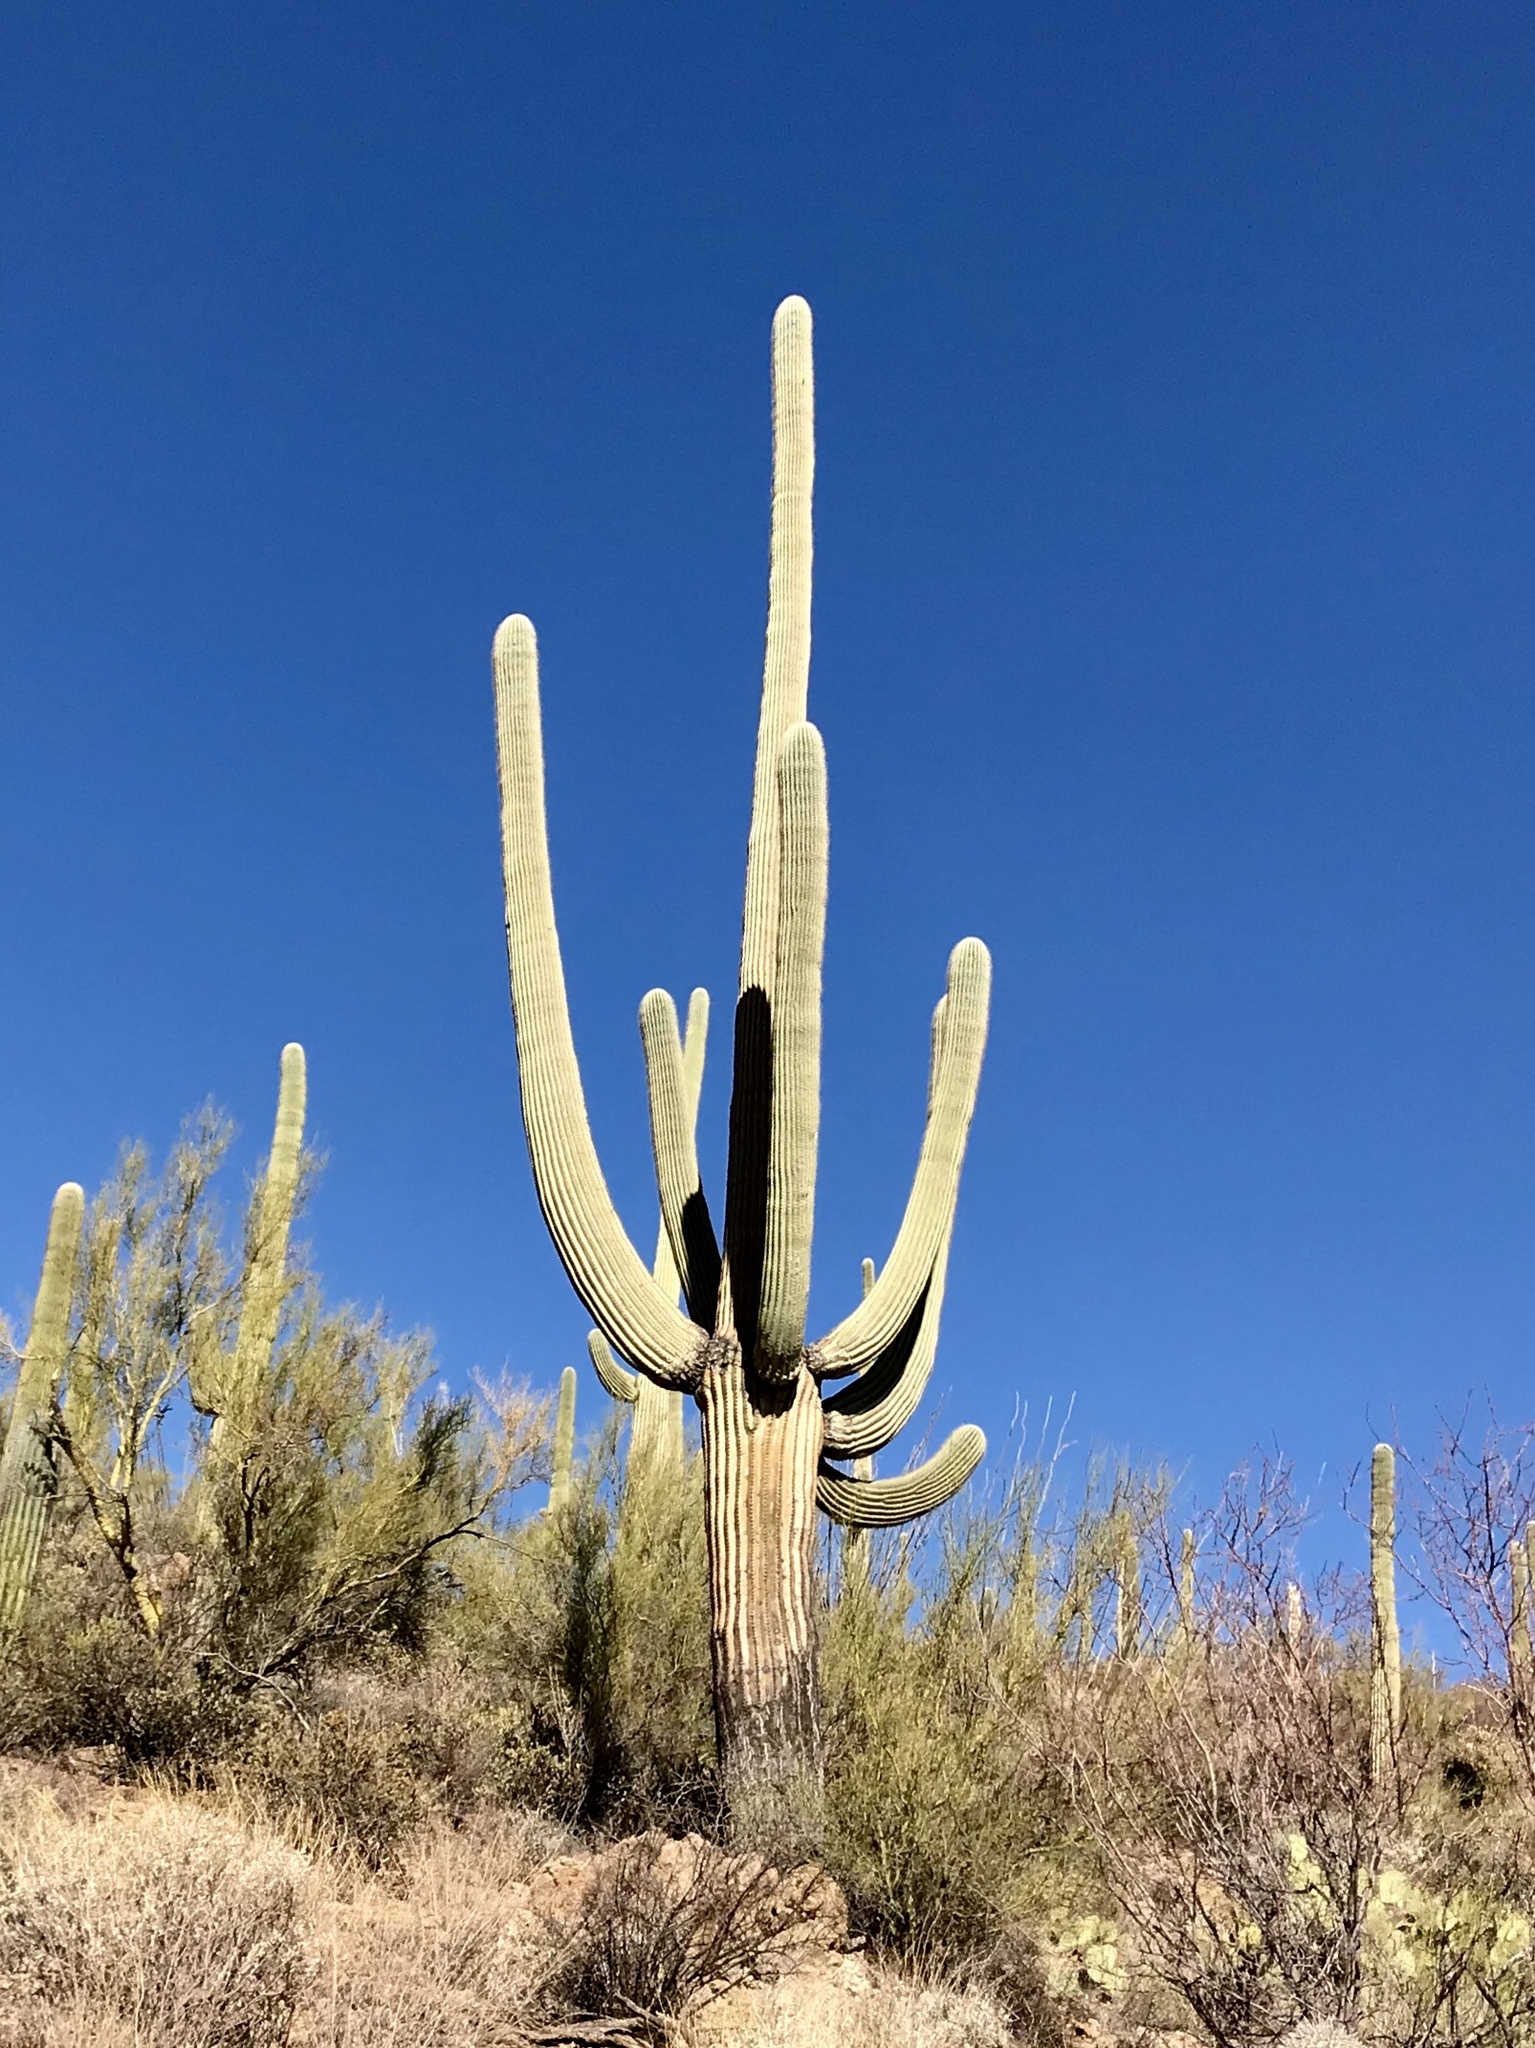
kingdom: Plantae
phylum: Tracheophyta
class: Magnoliopsida
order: Caryophyllales
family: Cactaceae
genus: Carnegiea
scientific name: Carnegiea gigantea
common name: Saguaro
